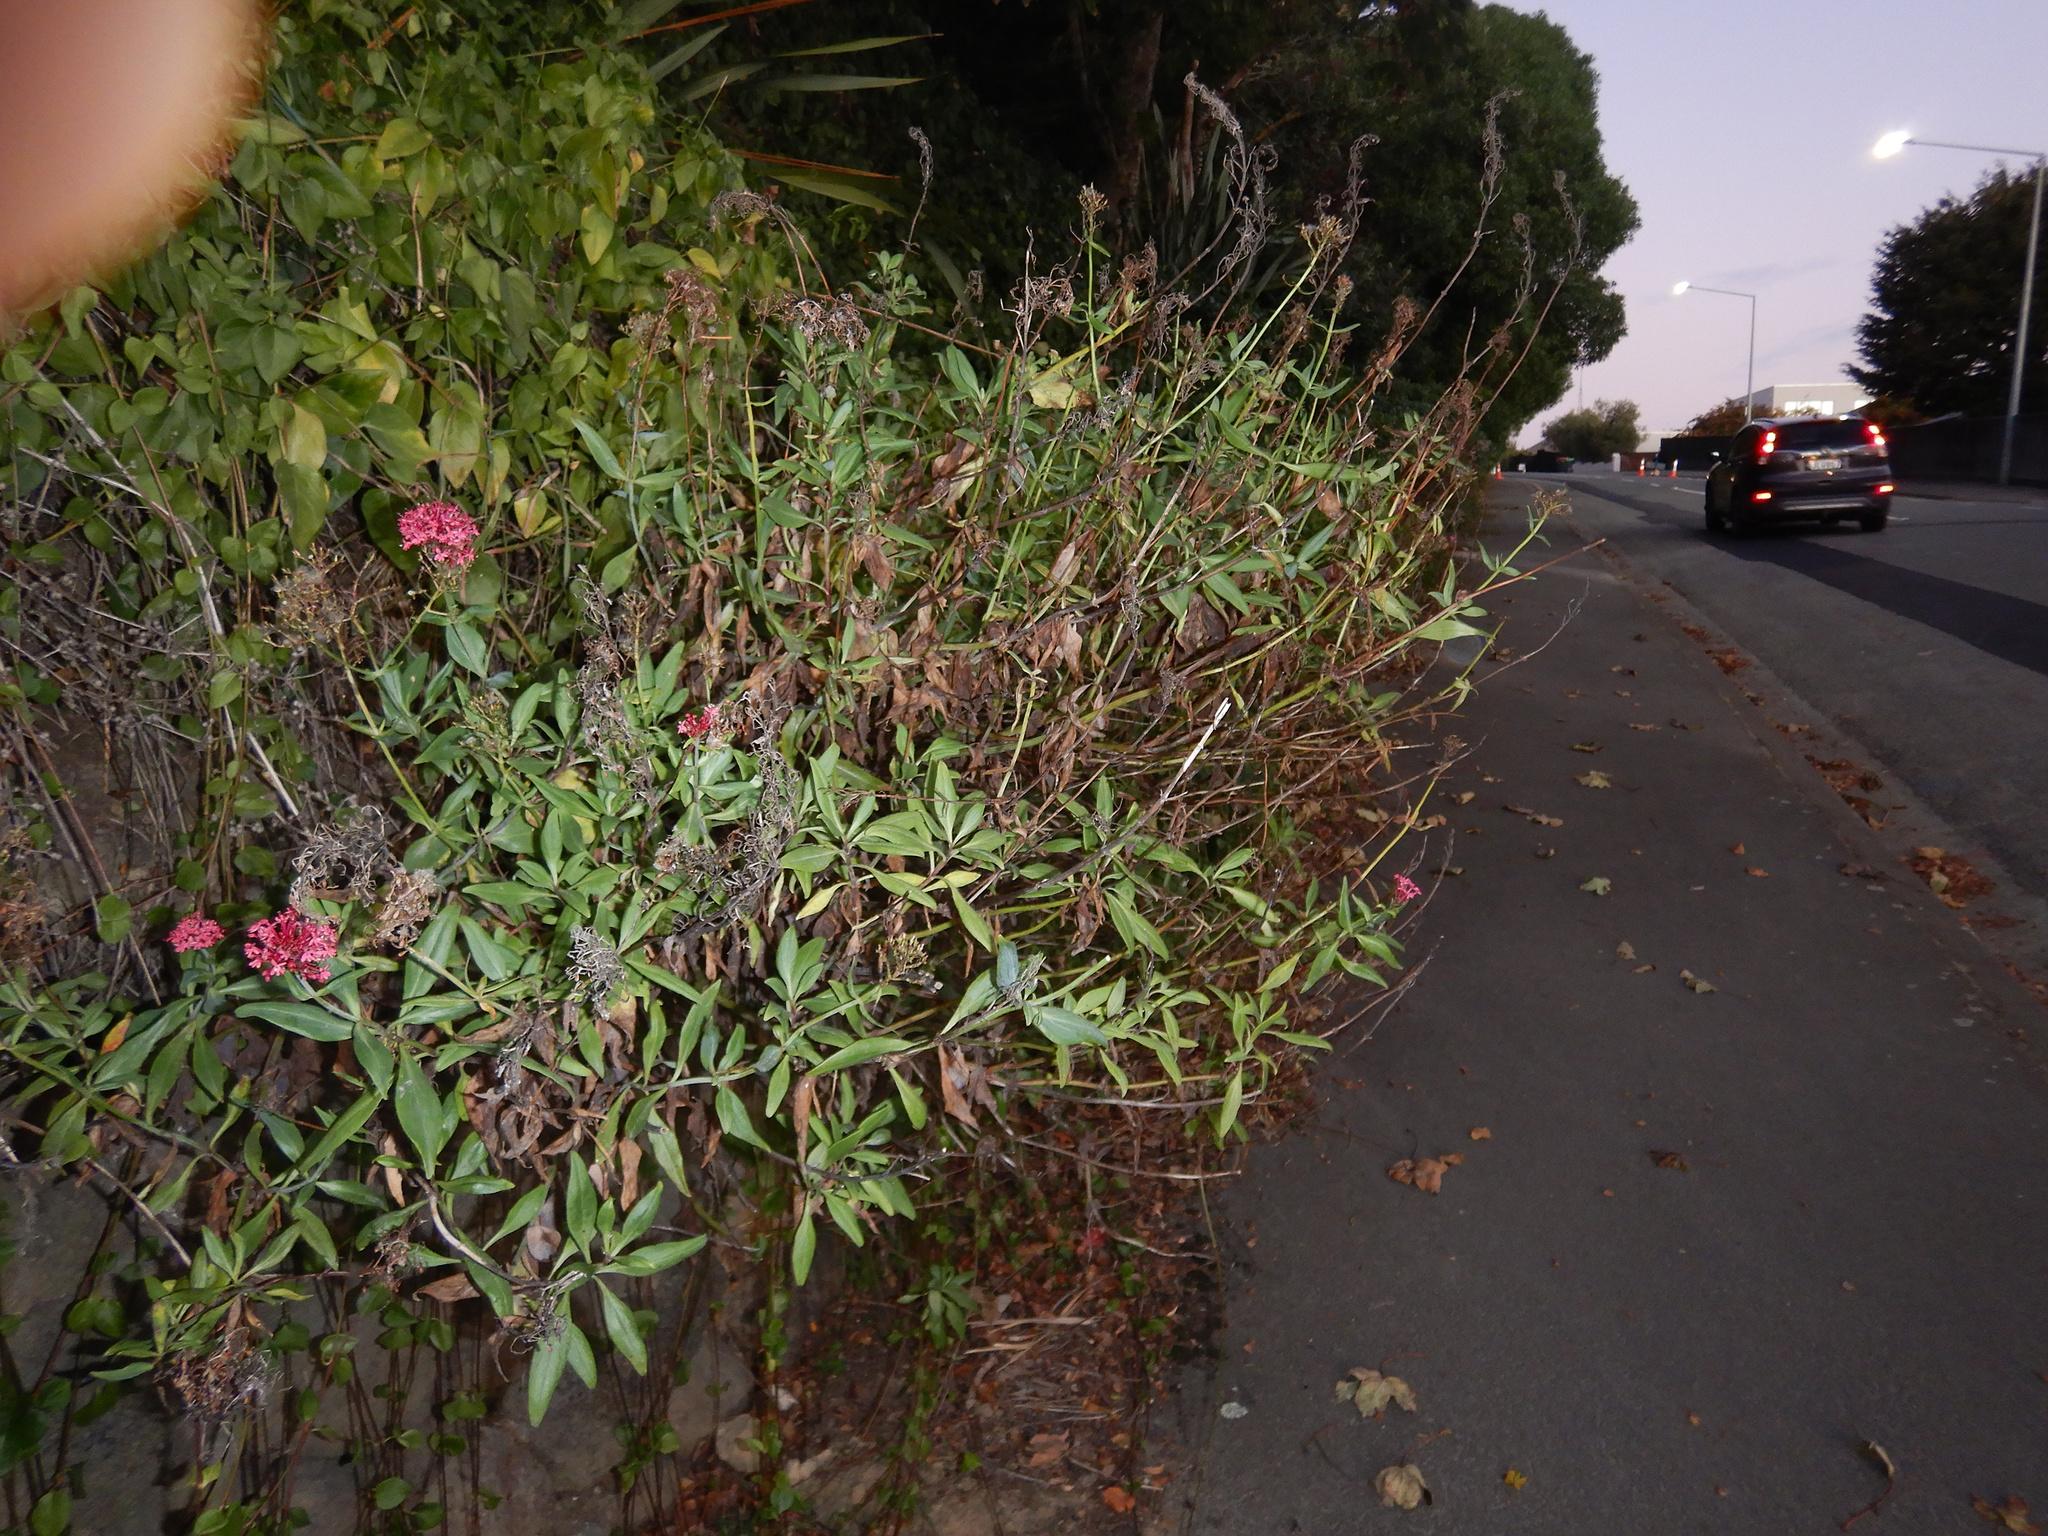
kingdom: Plantae
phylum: Tracheophyta
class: Magnoliopsida
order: Dipsacales
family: Caprifoliaceae
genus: Centranthus
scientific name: Centranthus ruber
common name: Red valerian
